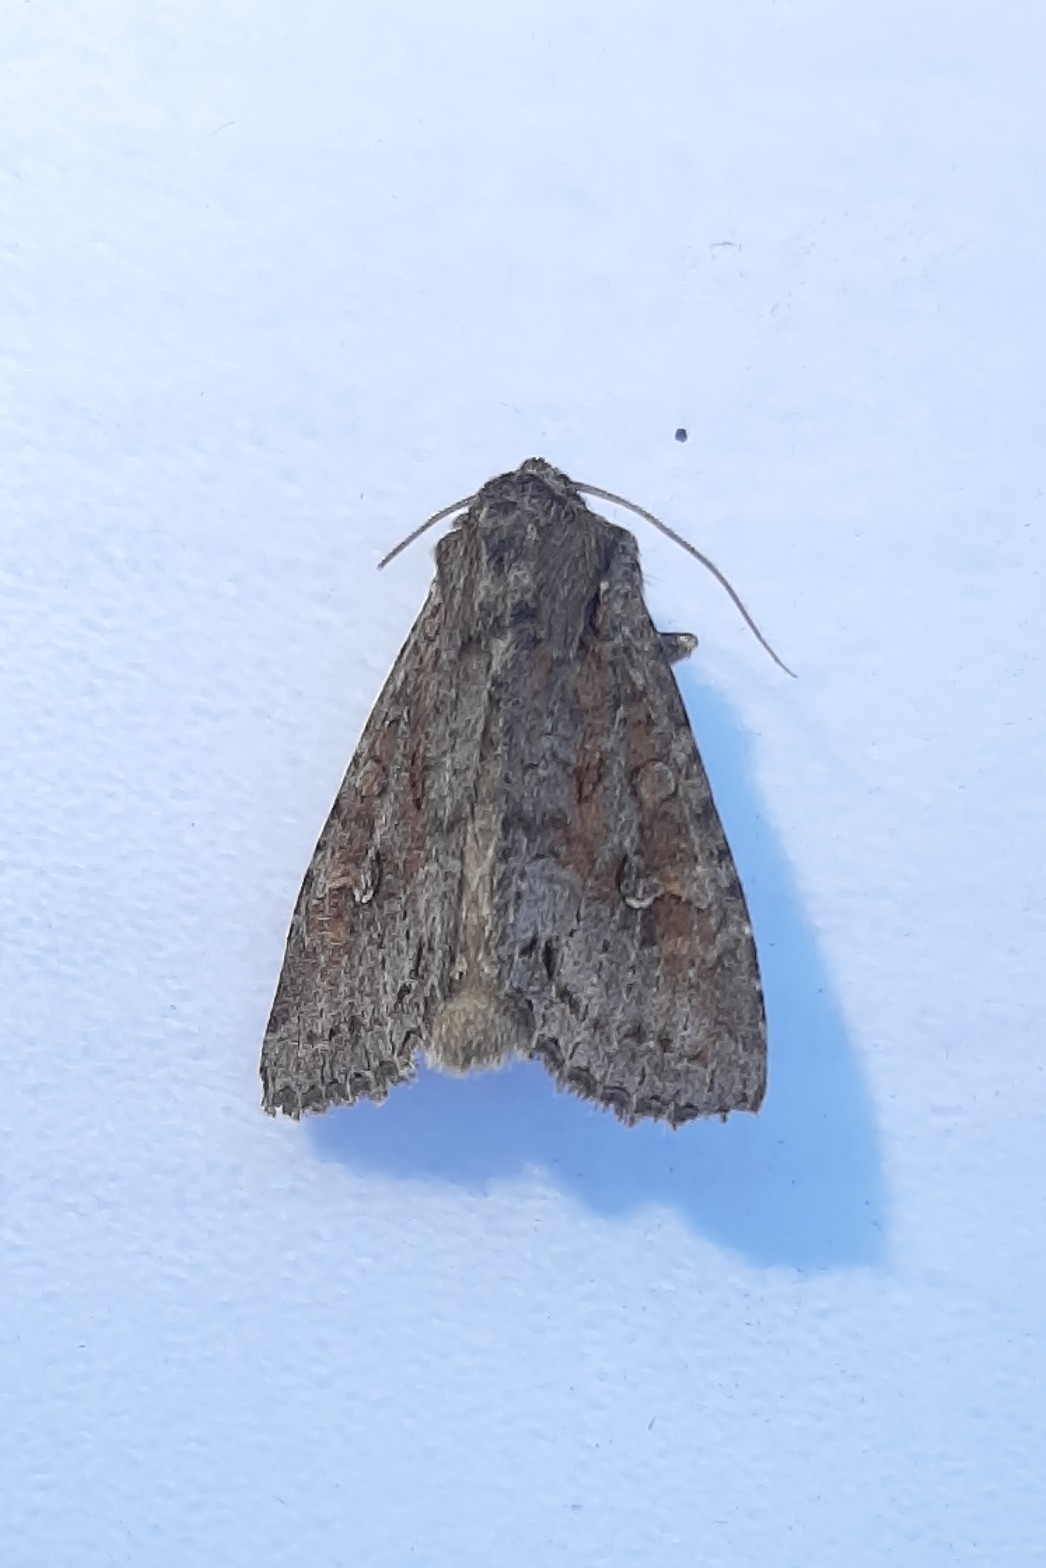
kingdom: Animalia
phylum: Arthropoda
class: Insecta
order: Lepidoptera
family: Noctuidae
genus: Polia
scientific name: Polia bombycina
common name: Pale shining brown
